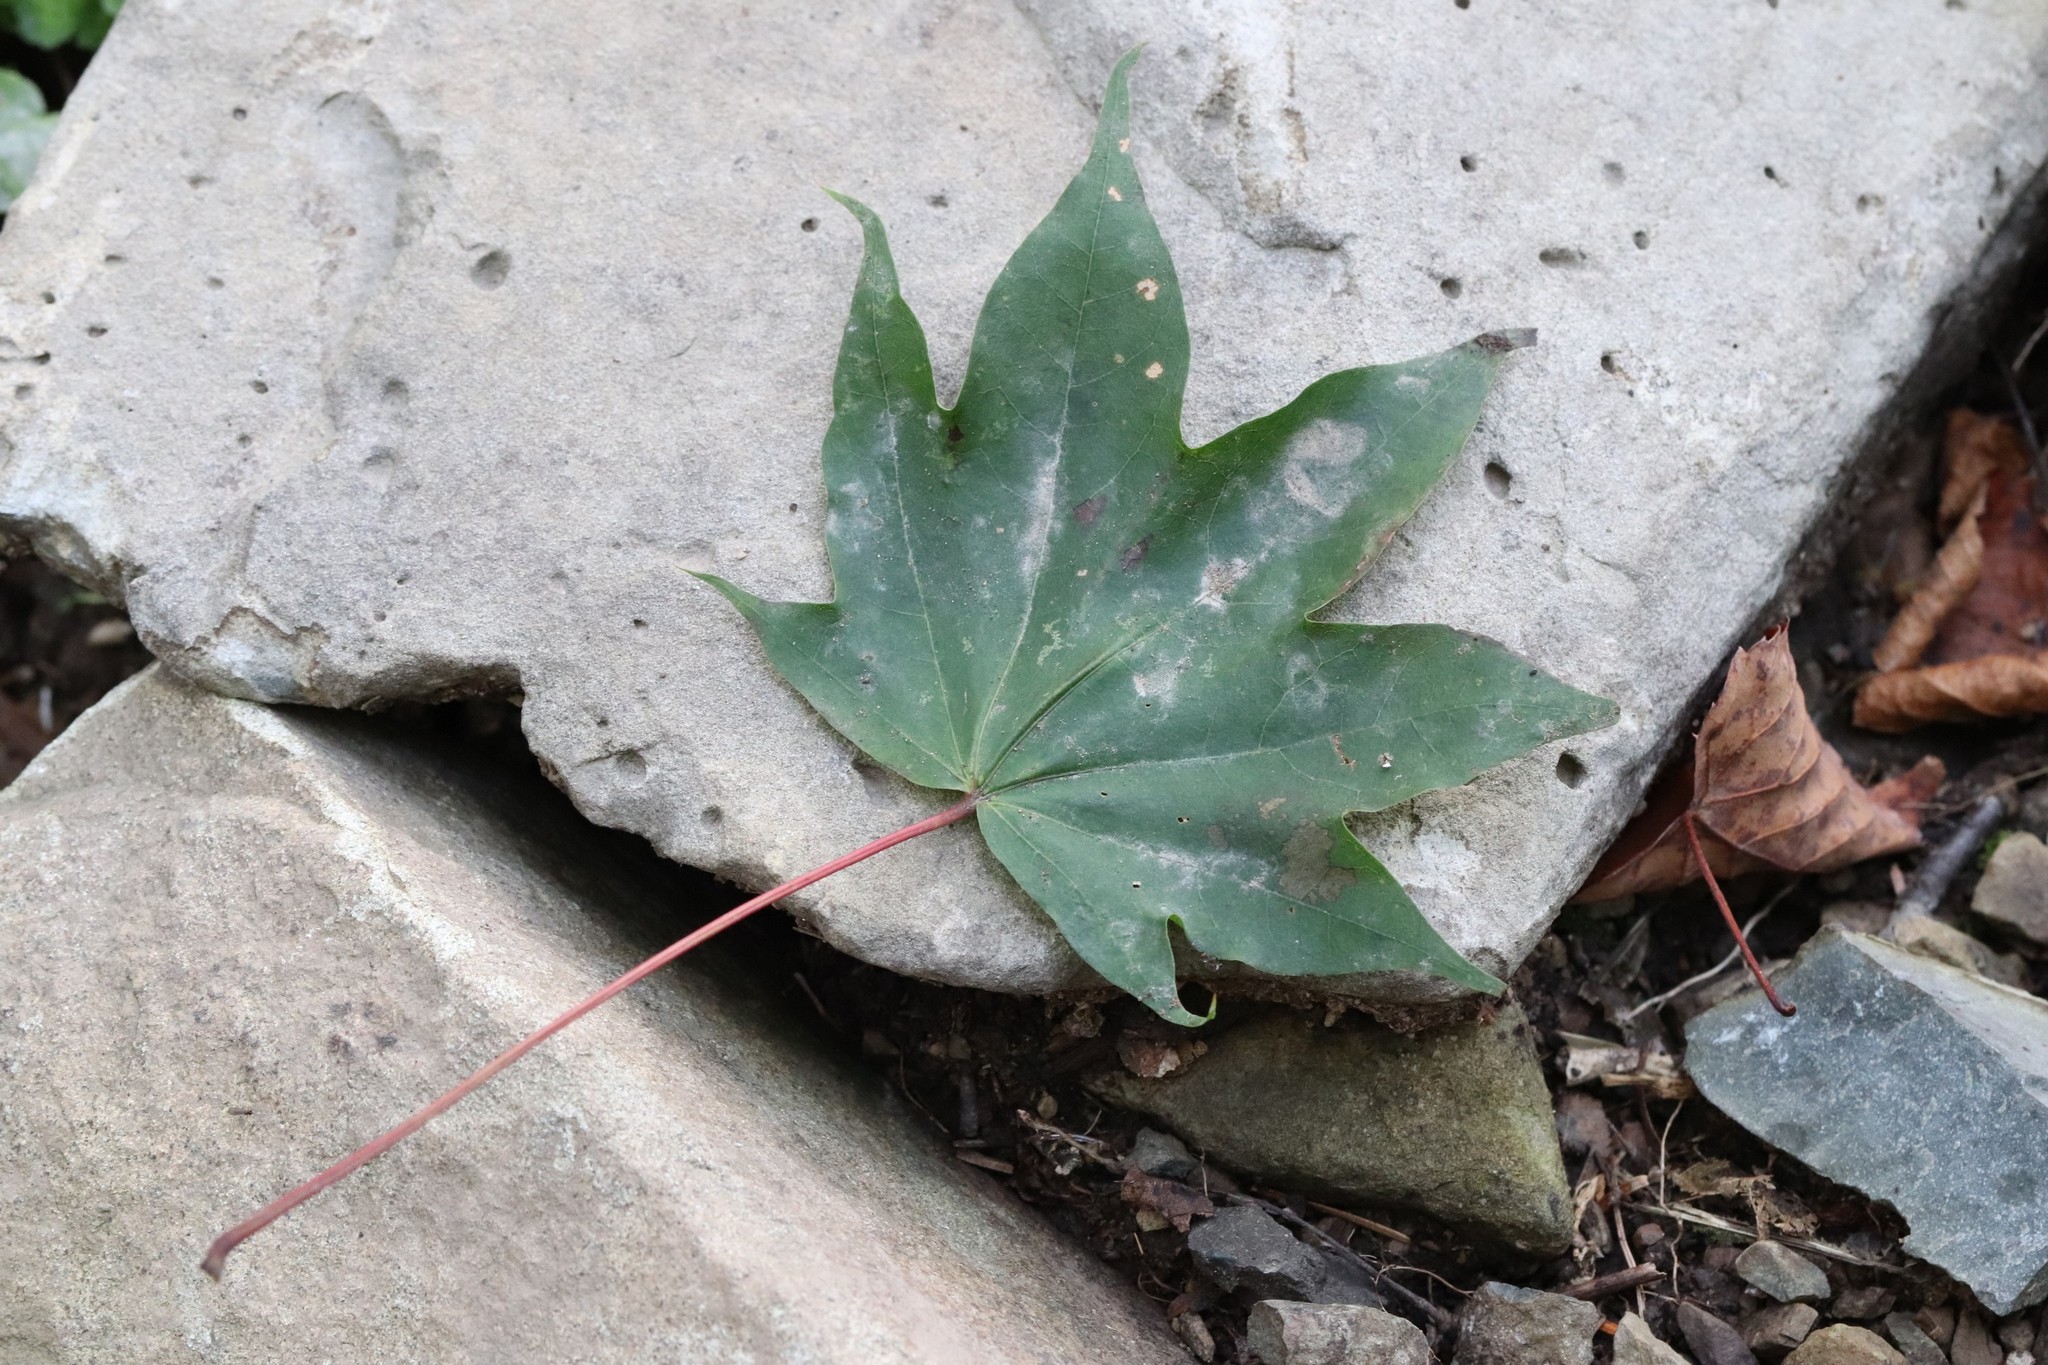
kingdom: Plantae
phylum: Tracheophyta
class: Magnoliopsida
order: Sapindales
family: Sapindaceae
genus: Acer
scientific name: Acer pictum
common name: The painted maple
